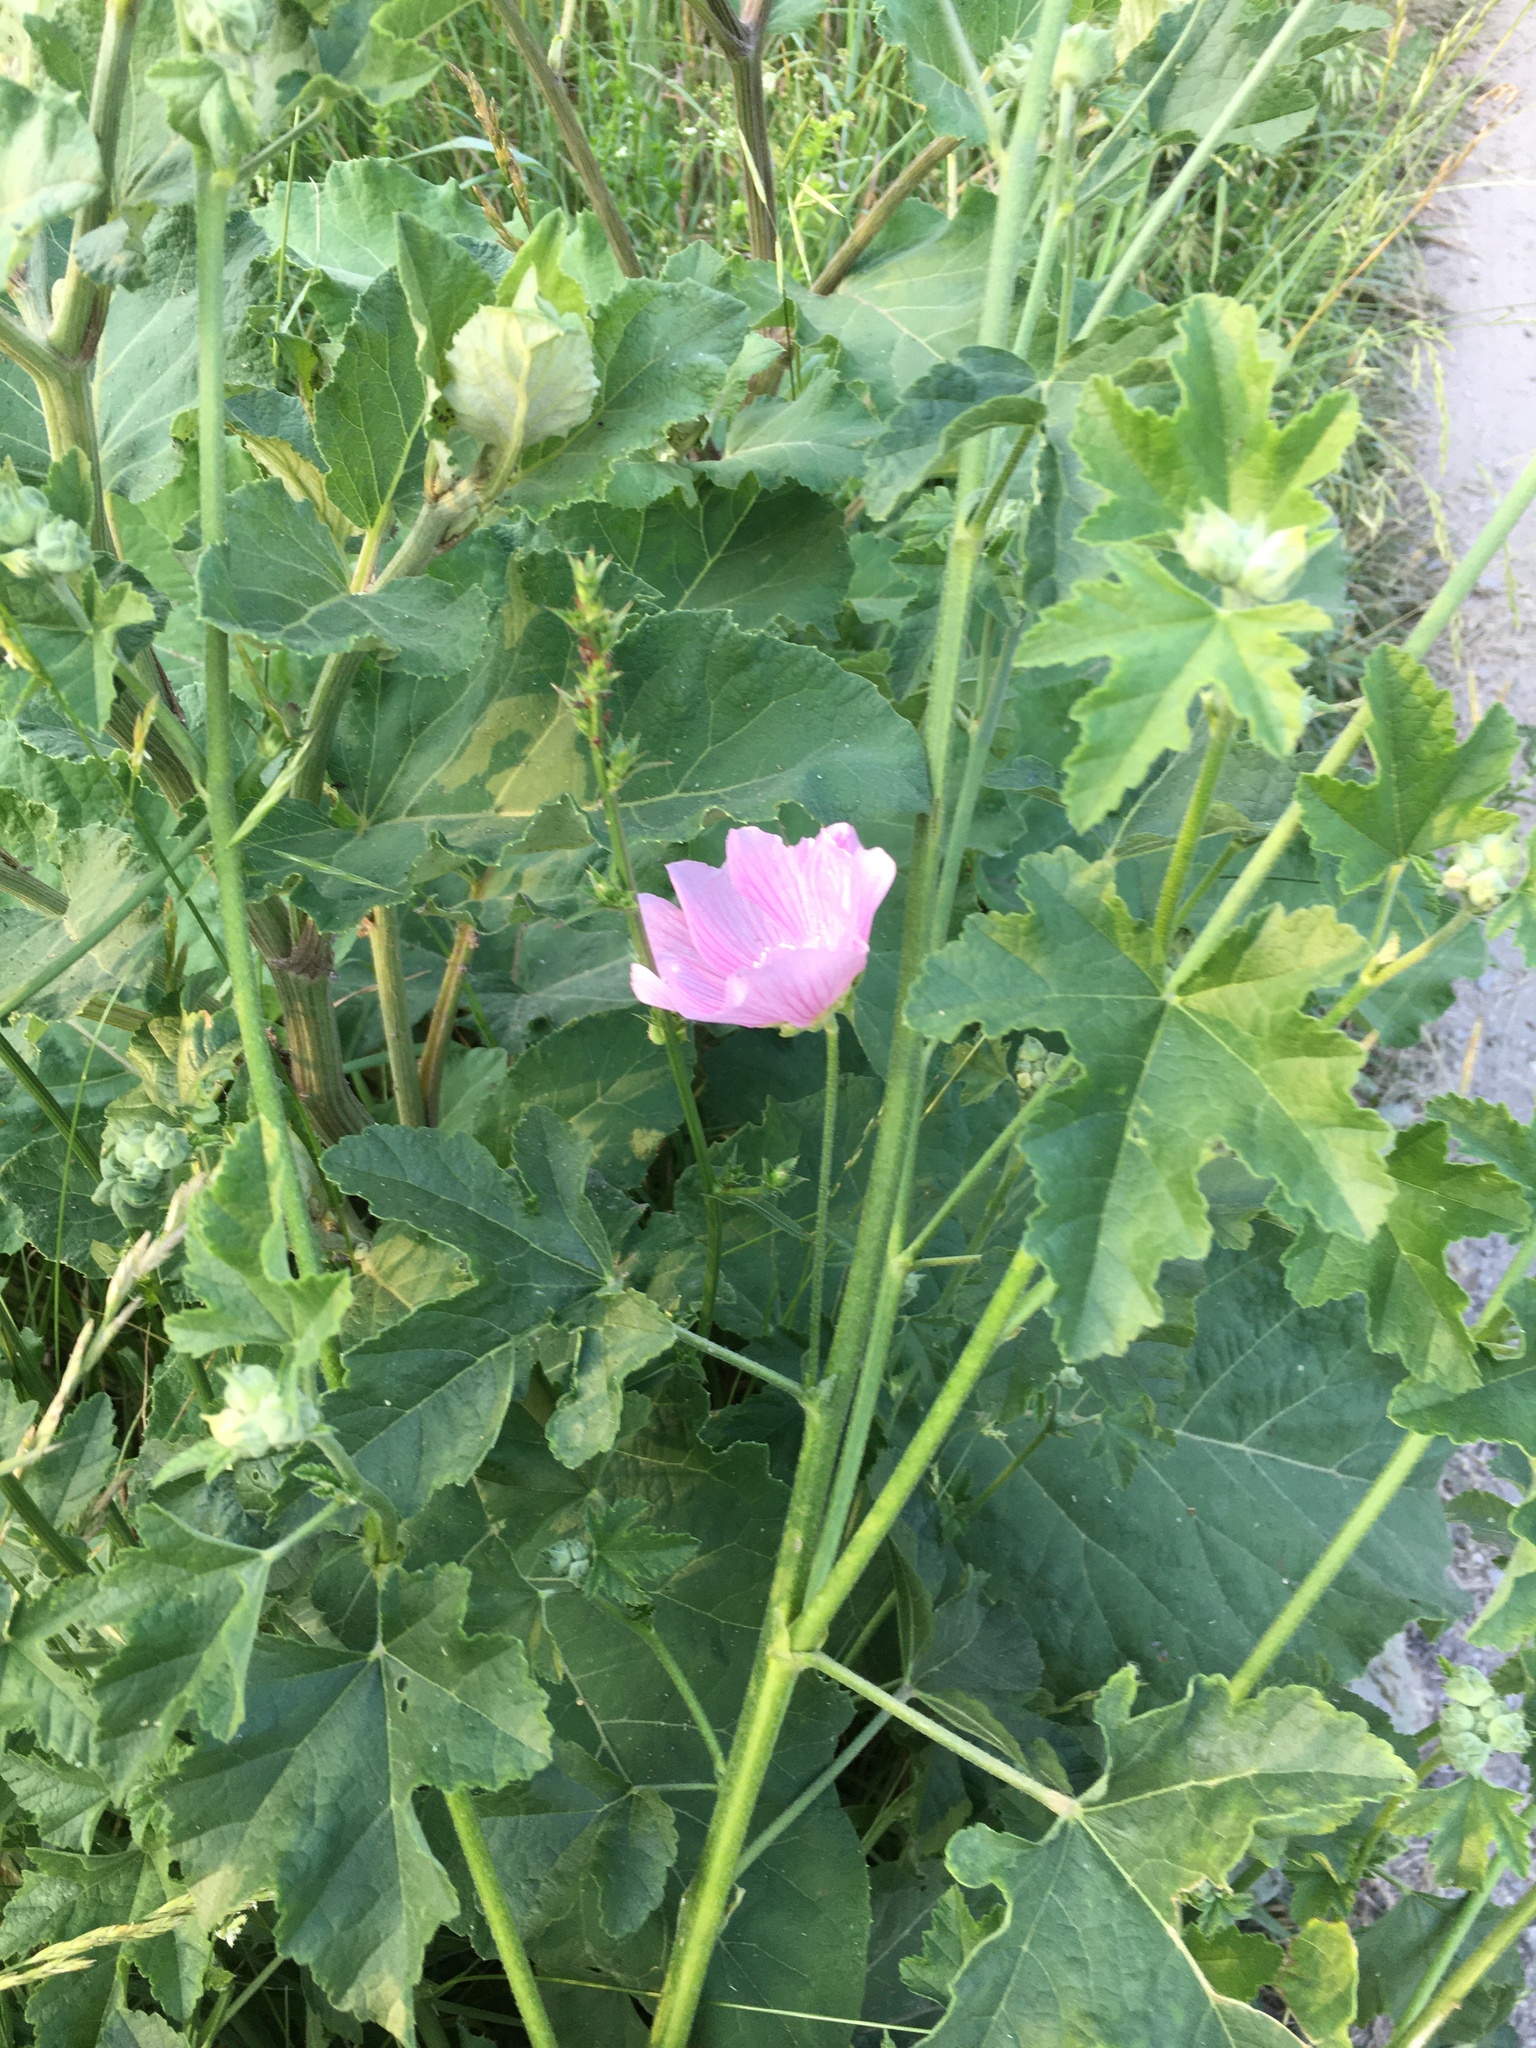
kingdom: Plantae
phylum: Tracheophyta
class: Magnoliopsida
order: Malvales
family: Malvaceae
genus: Malva
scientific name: Malva thuringiaca
